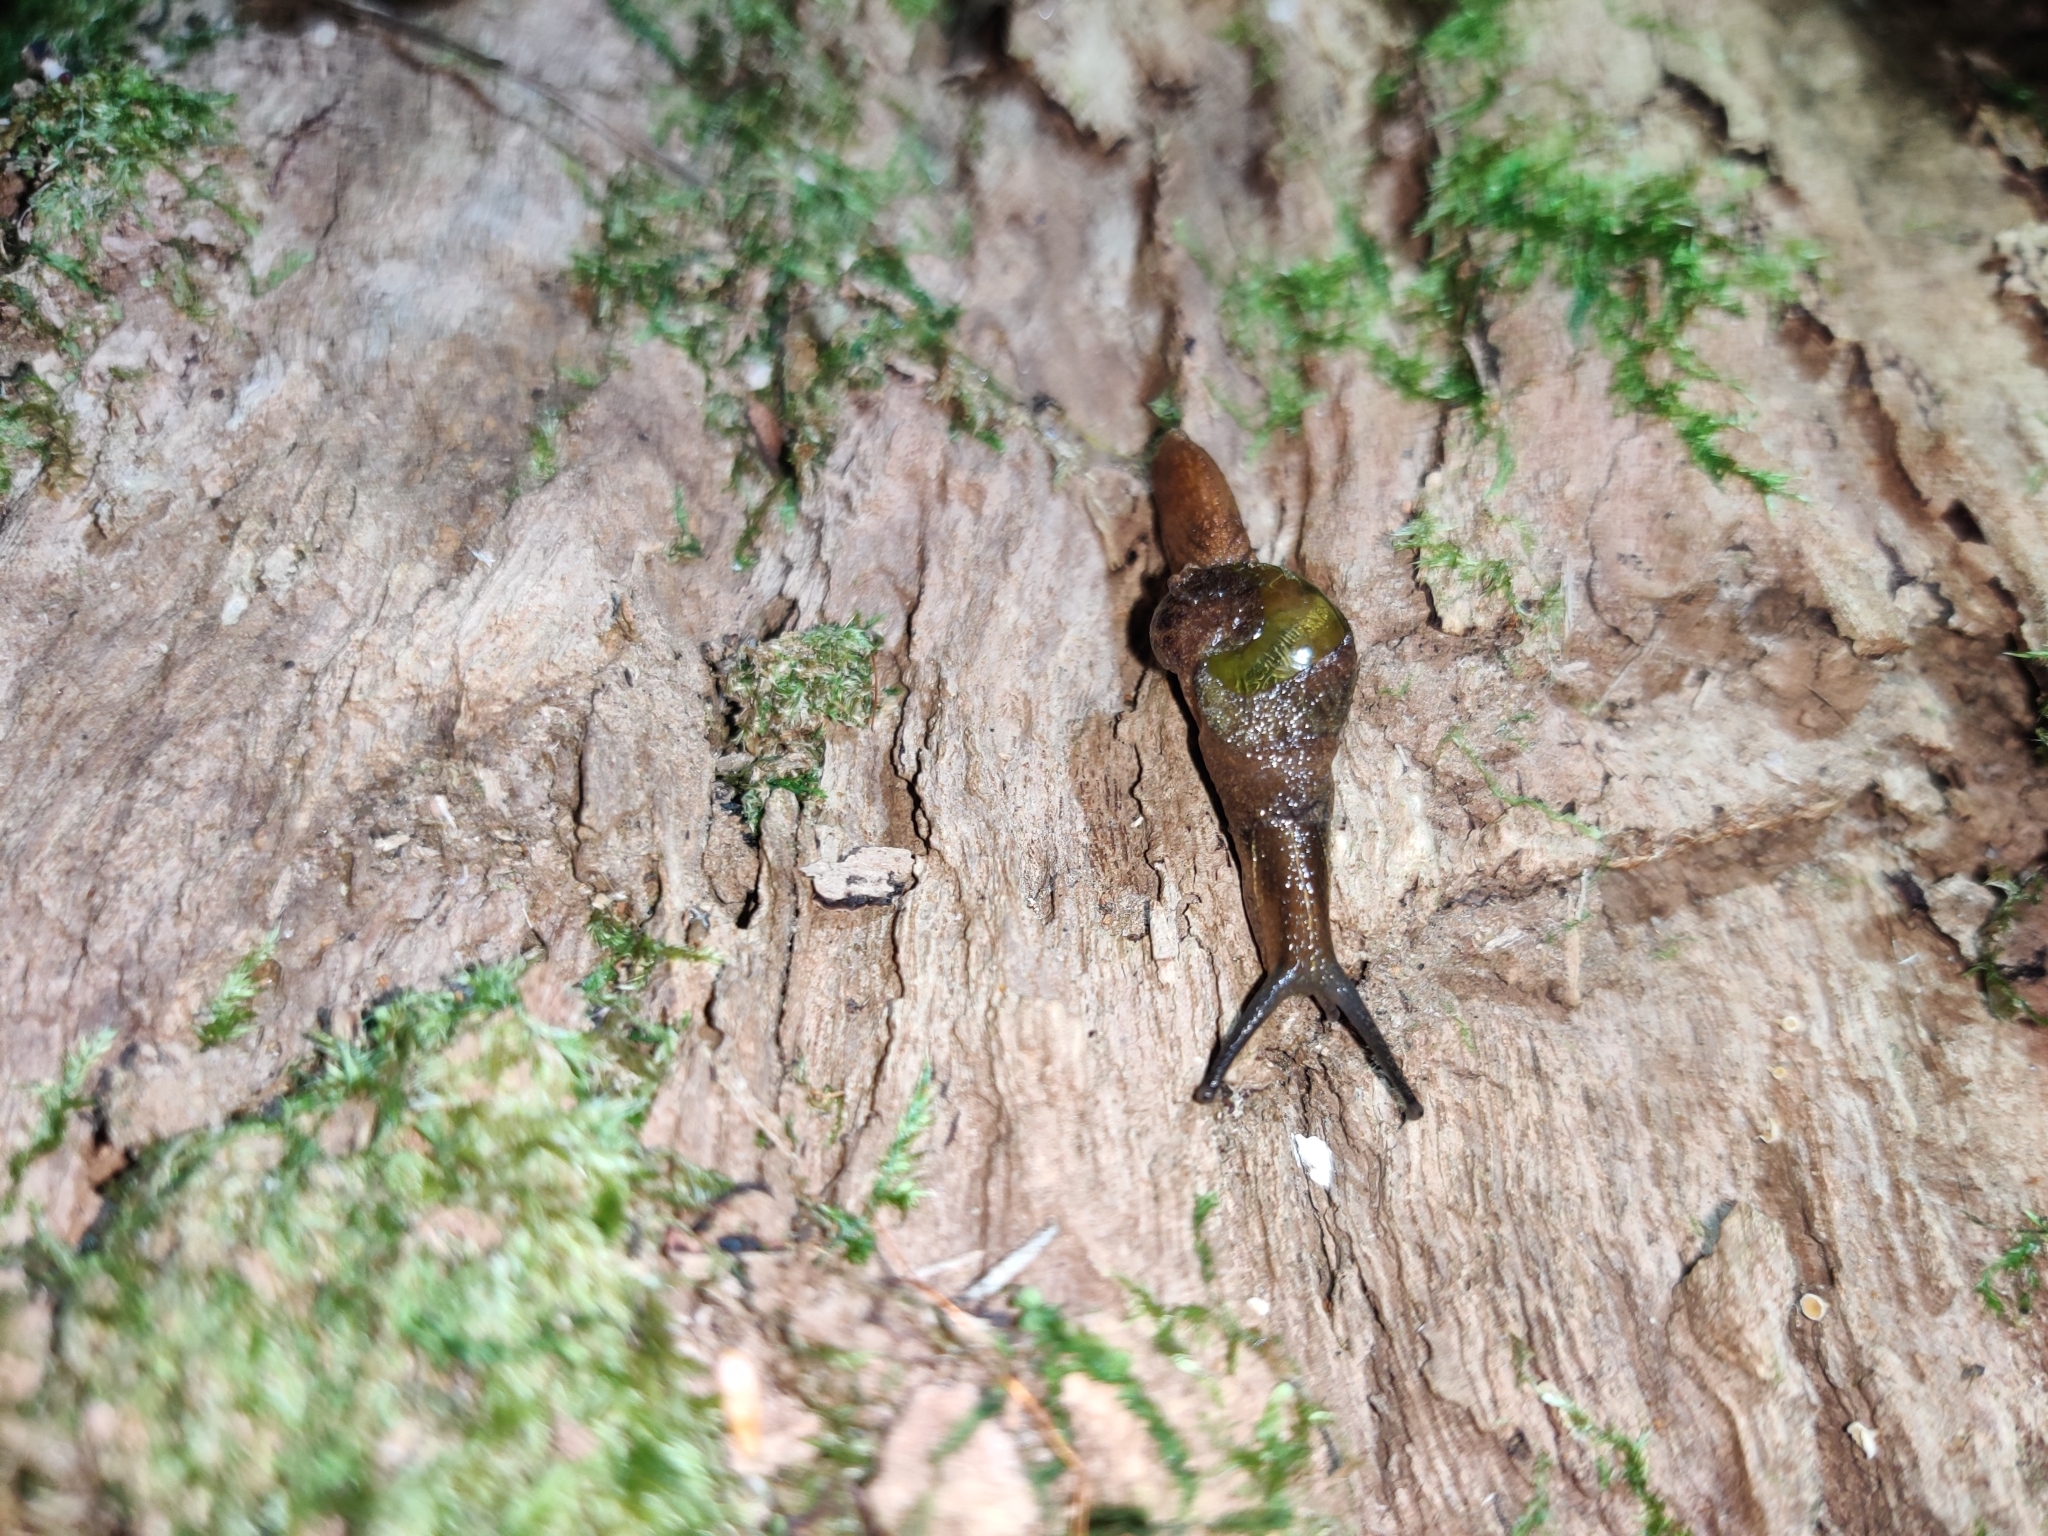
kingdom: Animalia
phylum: Mollusca
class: Gastropoda
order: Stylommatophora
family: Helicarionidae
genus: Parmavitrina
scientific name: Parmavitrina rubrica
